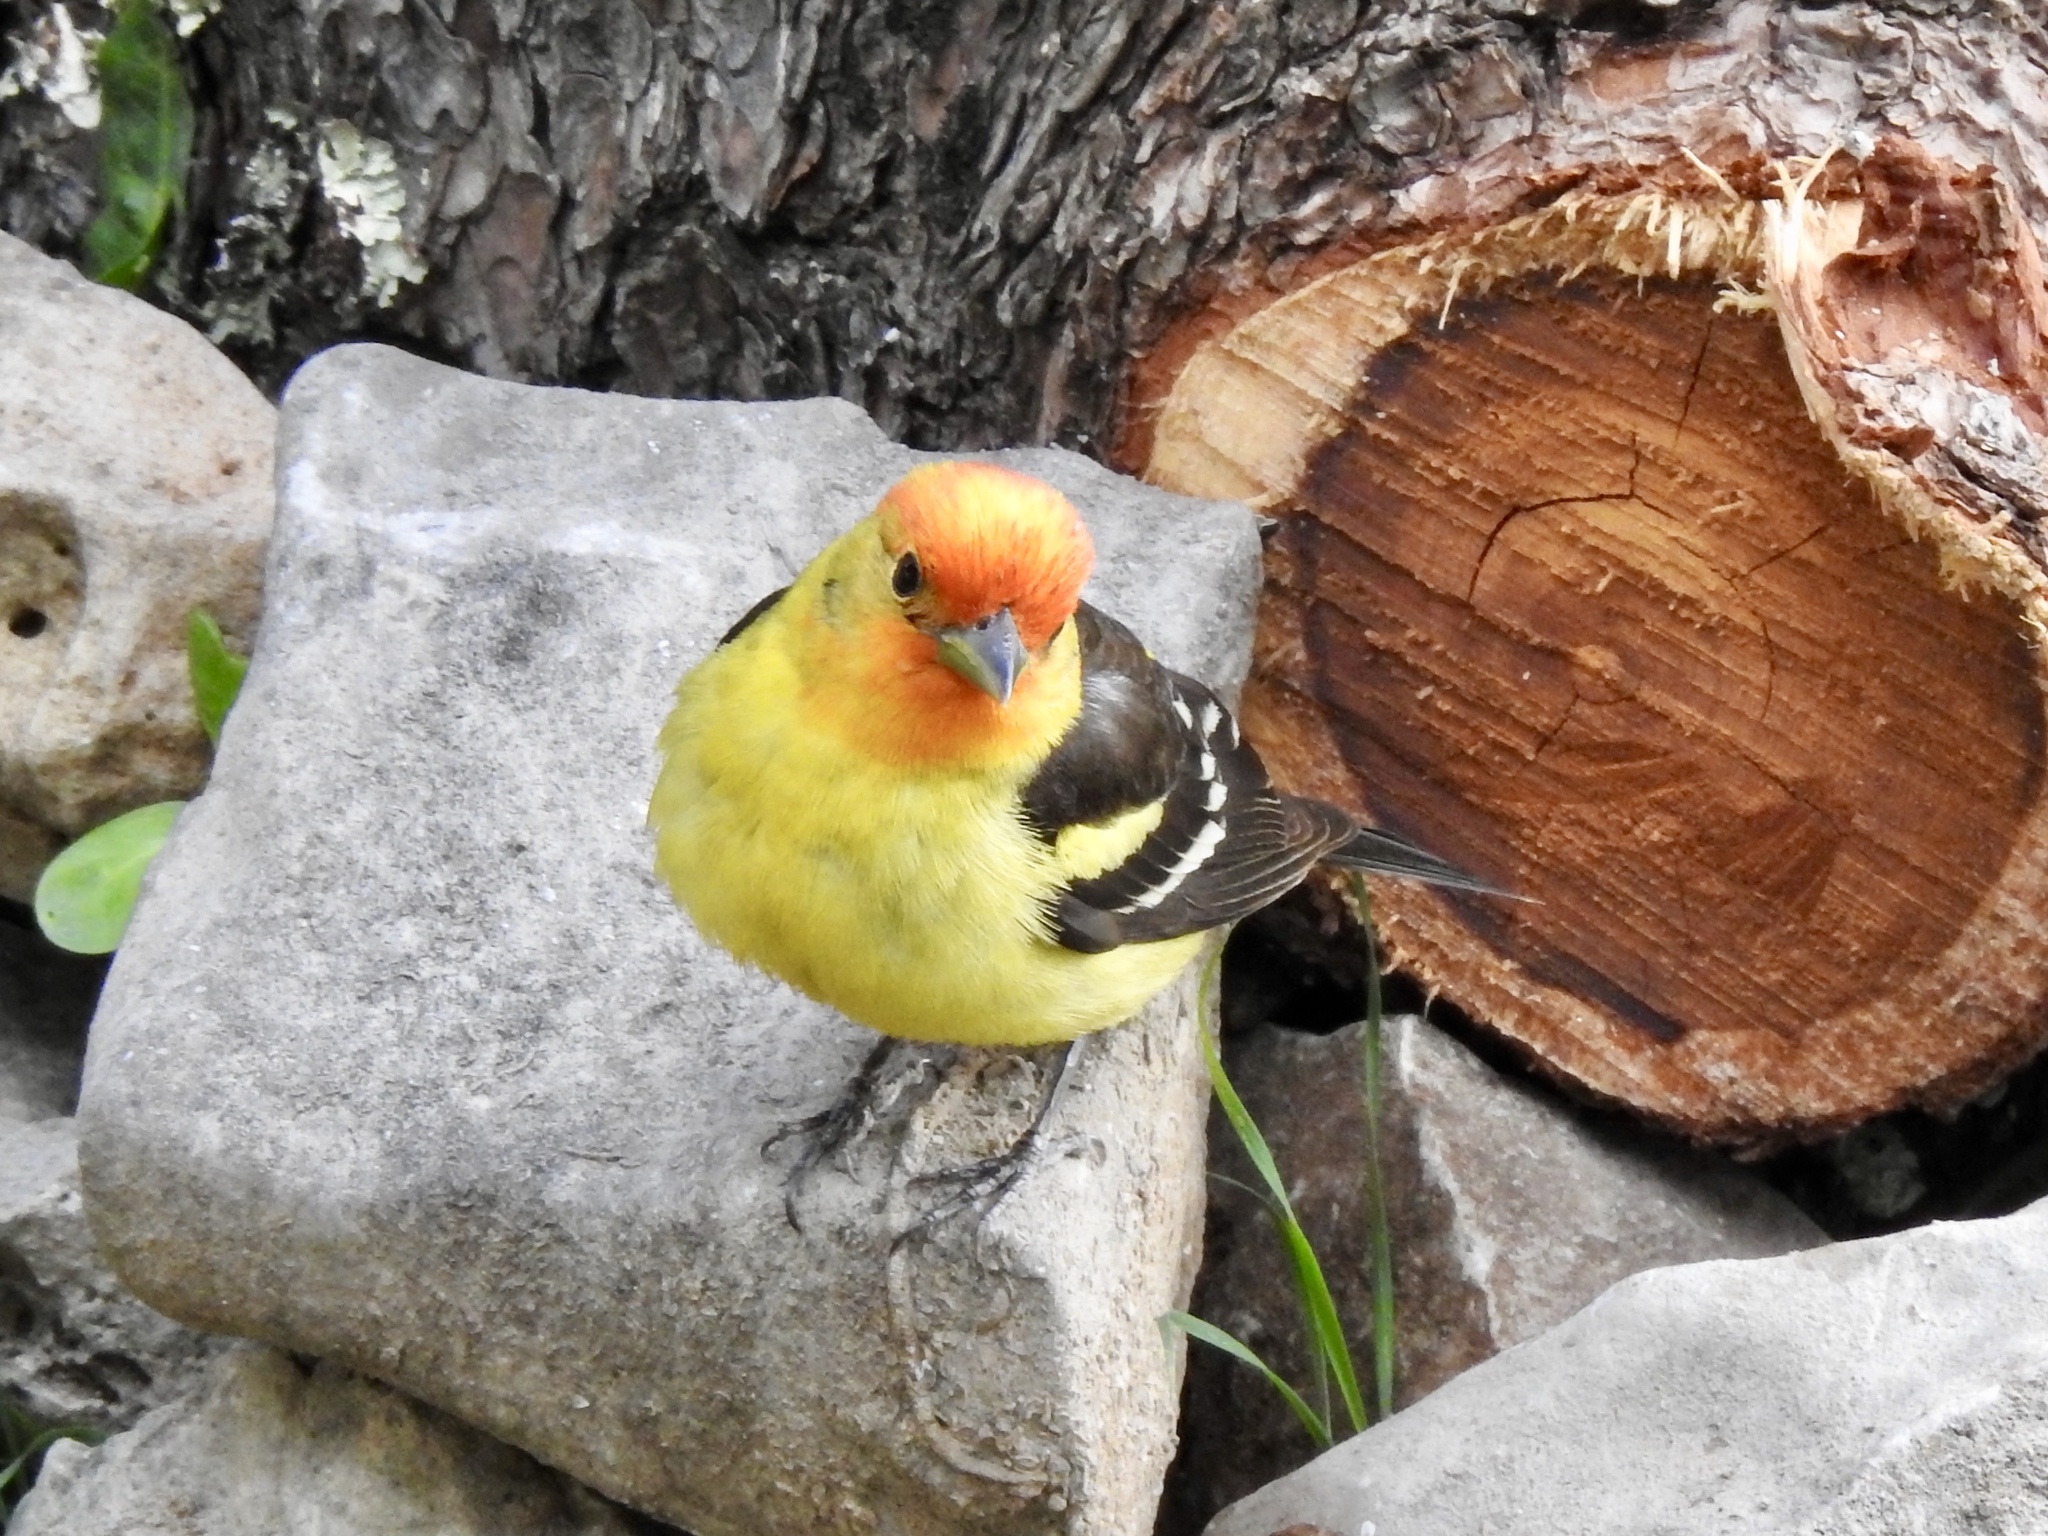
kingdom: Animalia
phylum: Chordata
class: Aves
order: Passeriformes
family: Cardinalidae
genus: Piranga
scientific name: Piranga ludoviciana
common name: Western tanager
